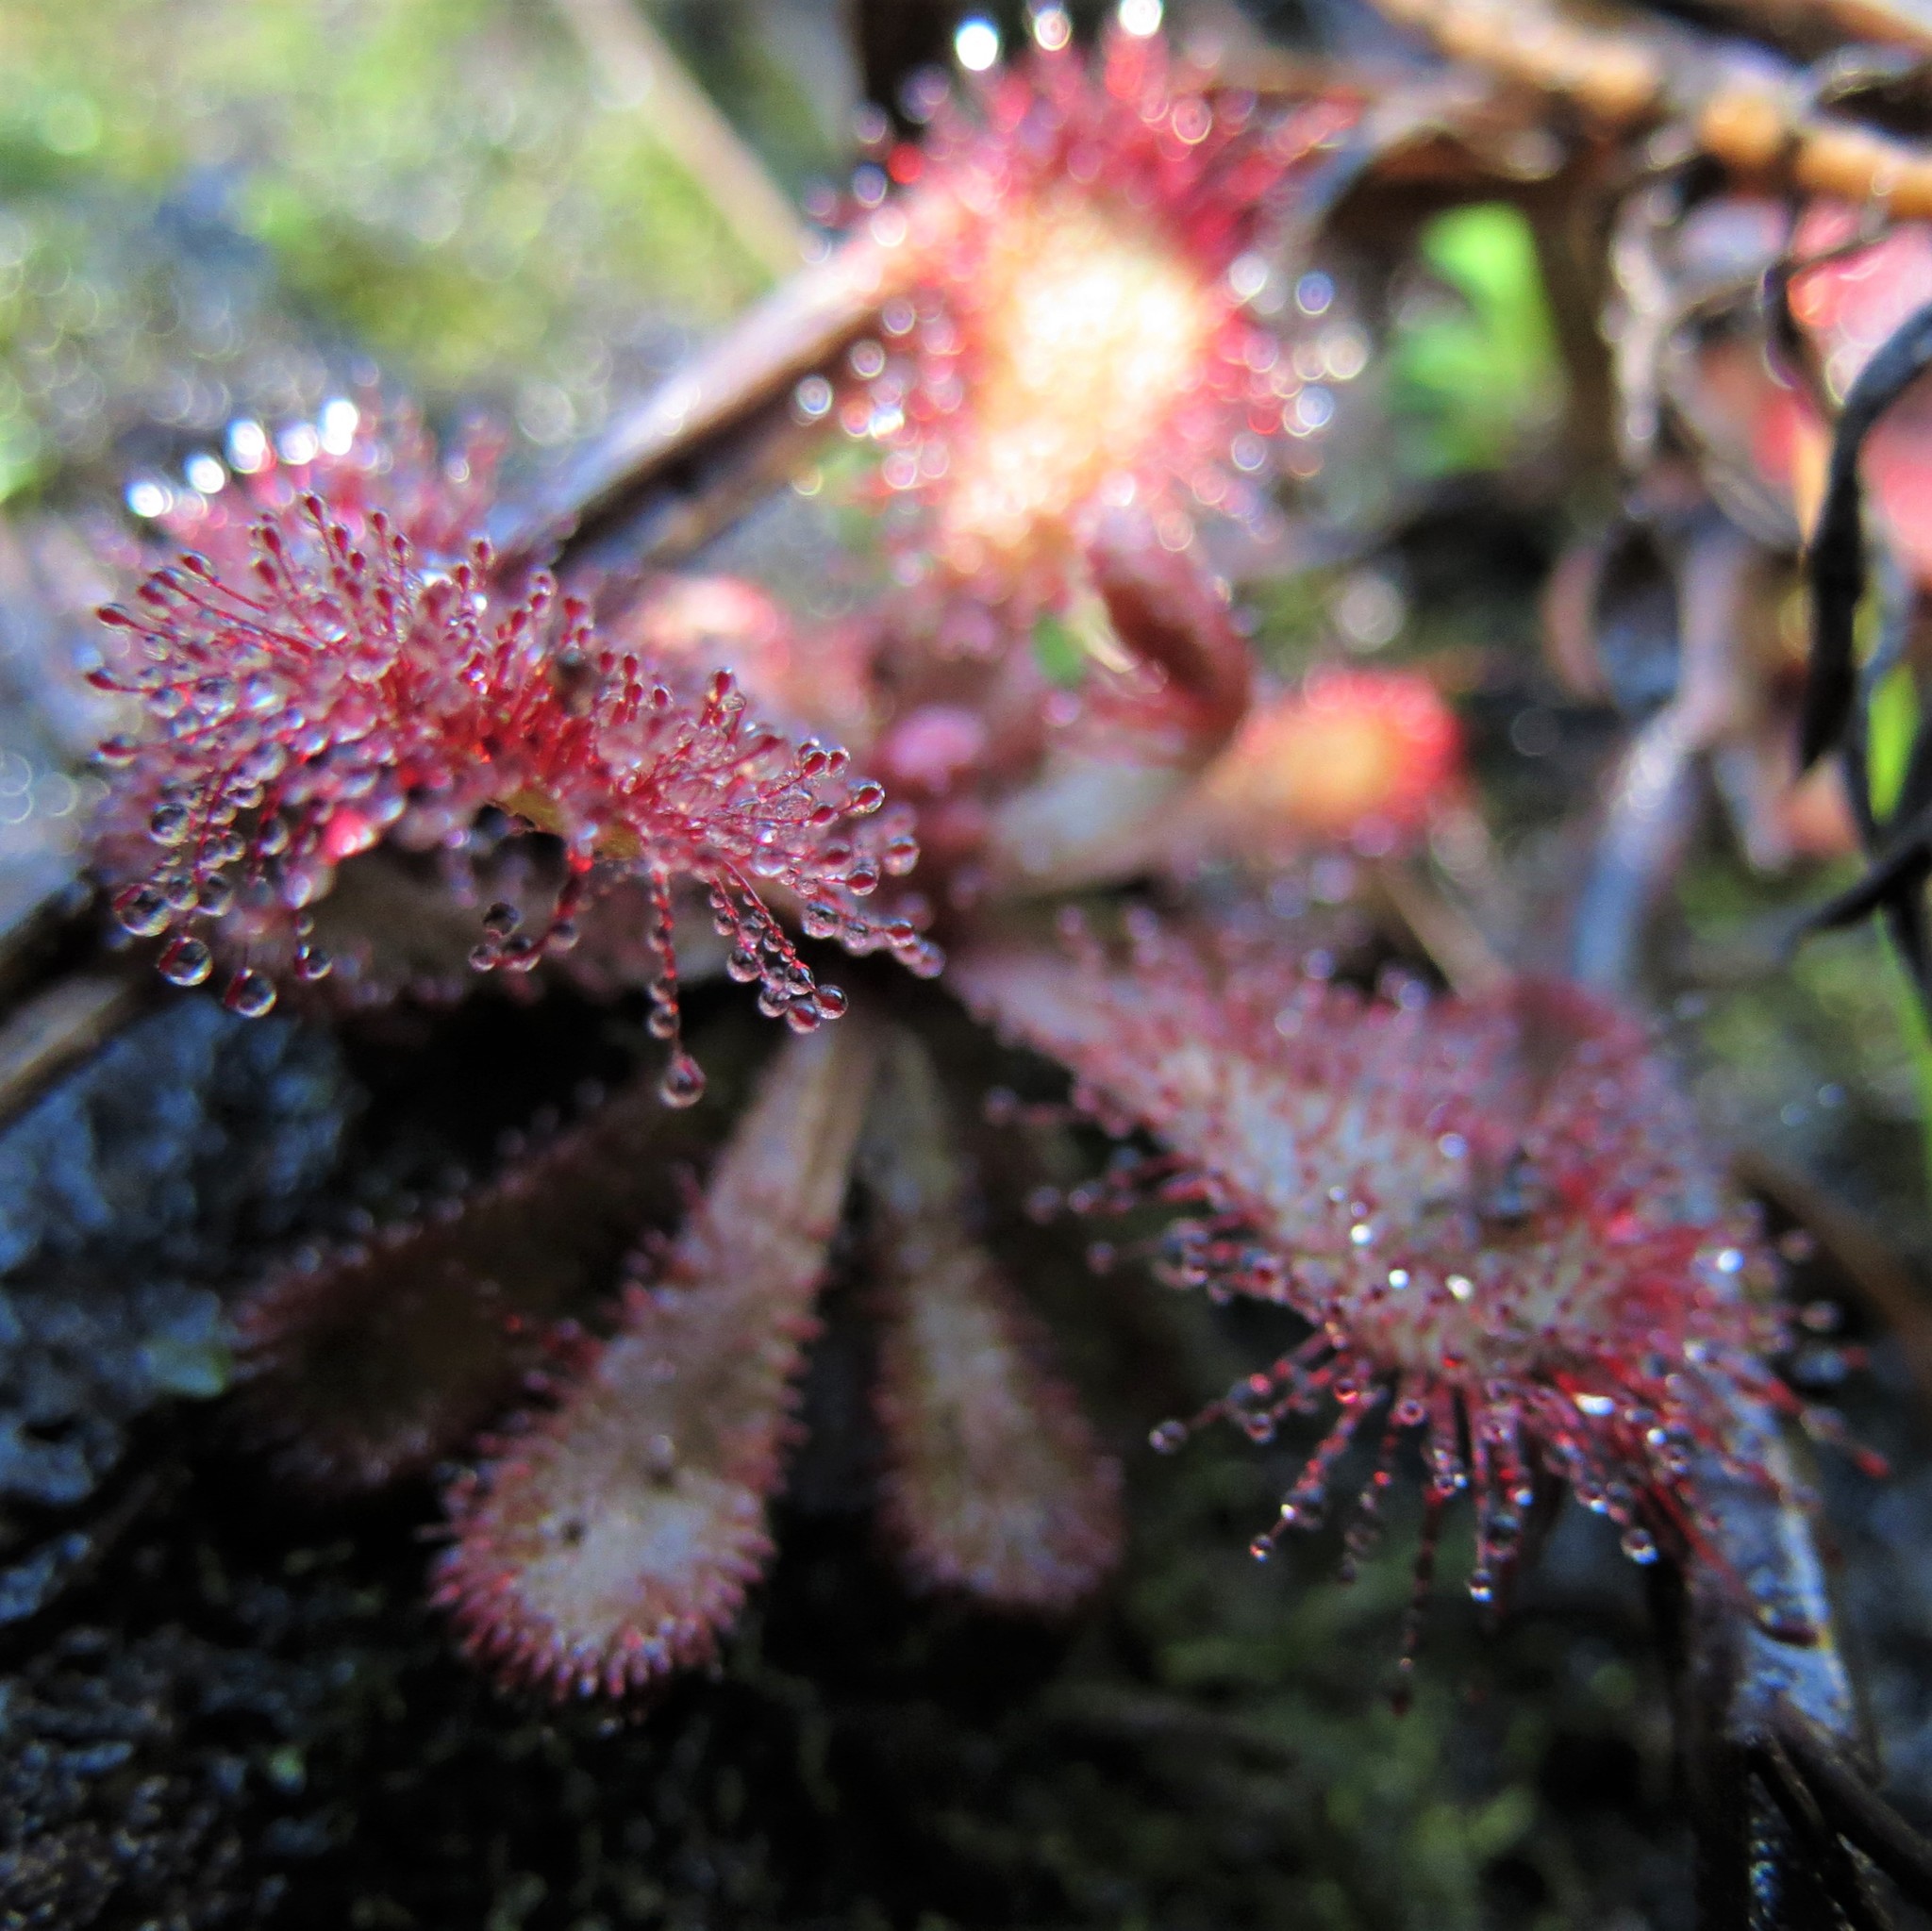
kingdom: Plantae
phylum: Tracheophyta
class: Magnoliopsida
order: Caryophyllales
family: Droseraceae
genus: Drosera
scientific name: Drosera natalensis
